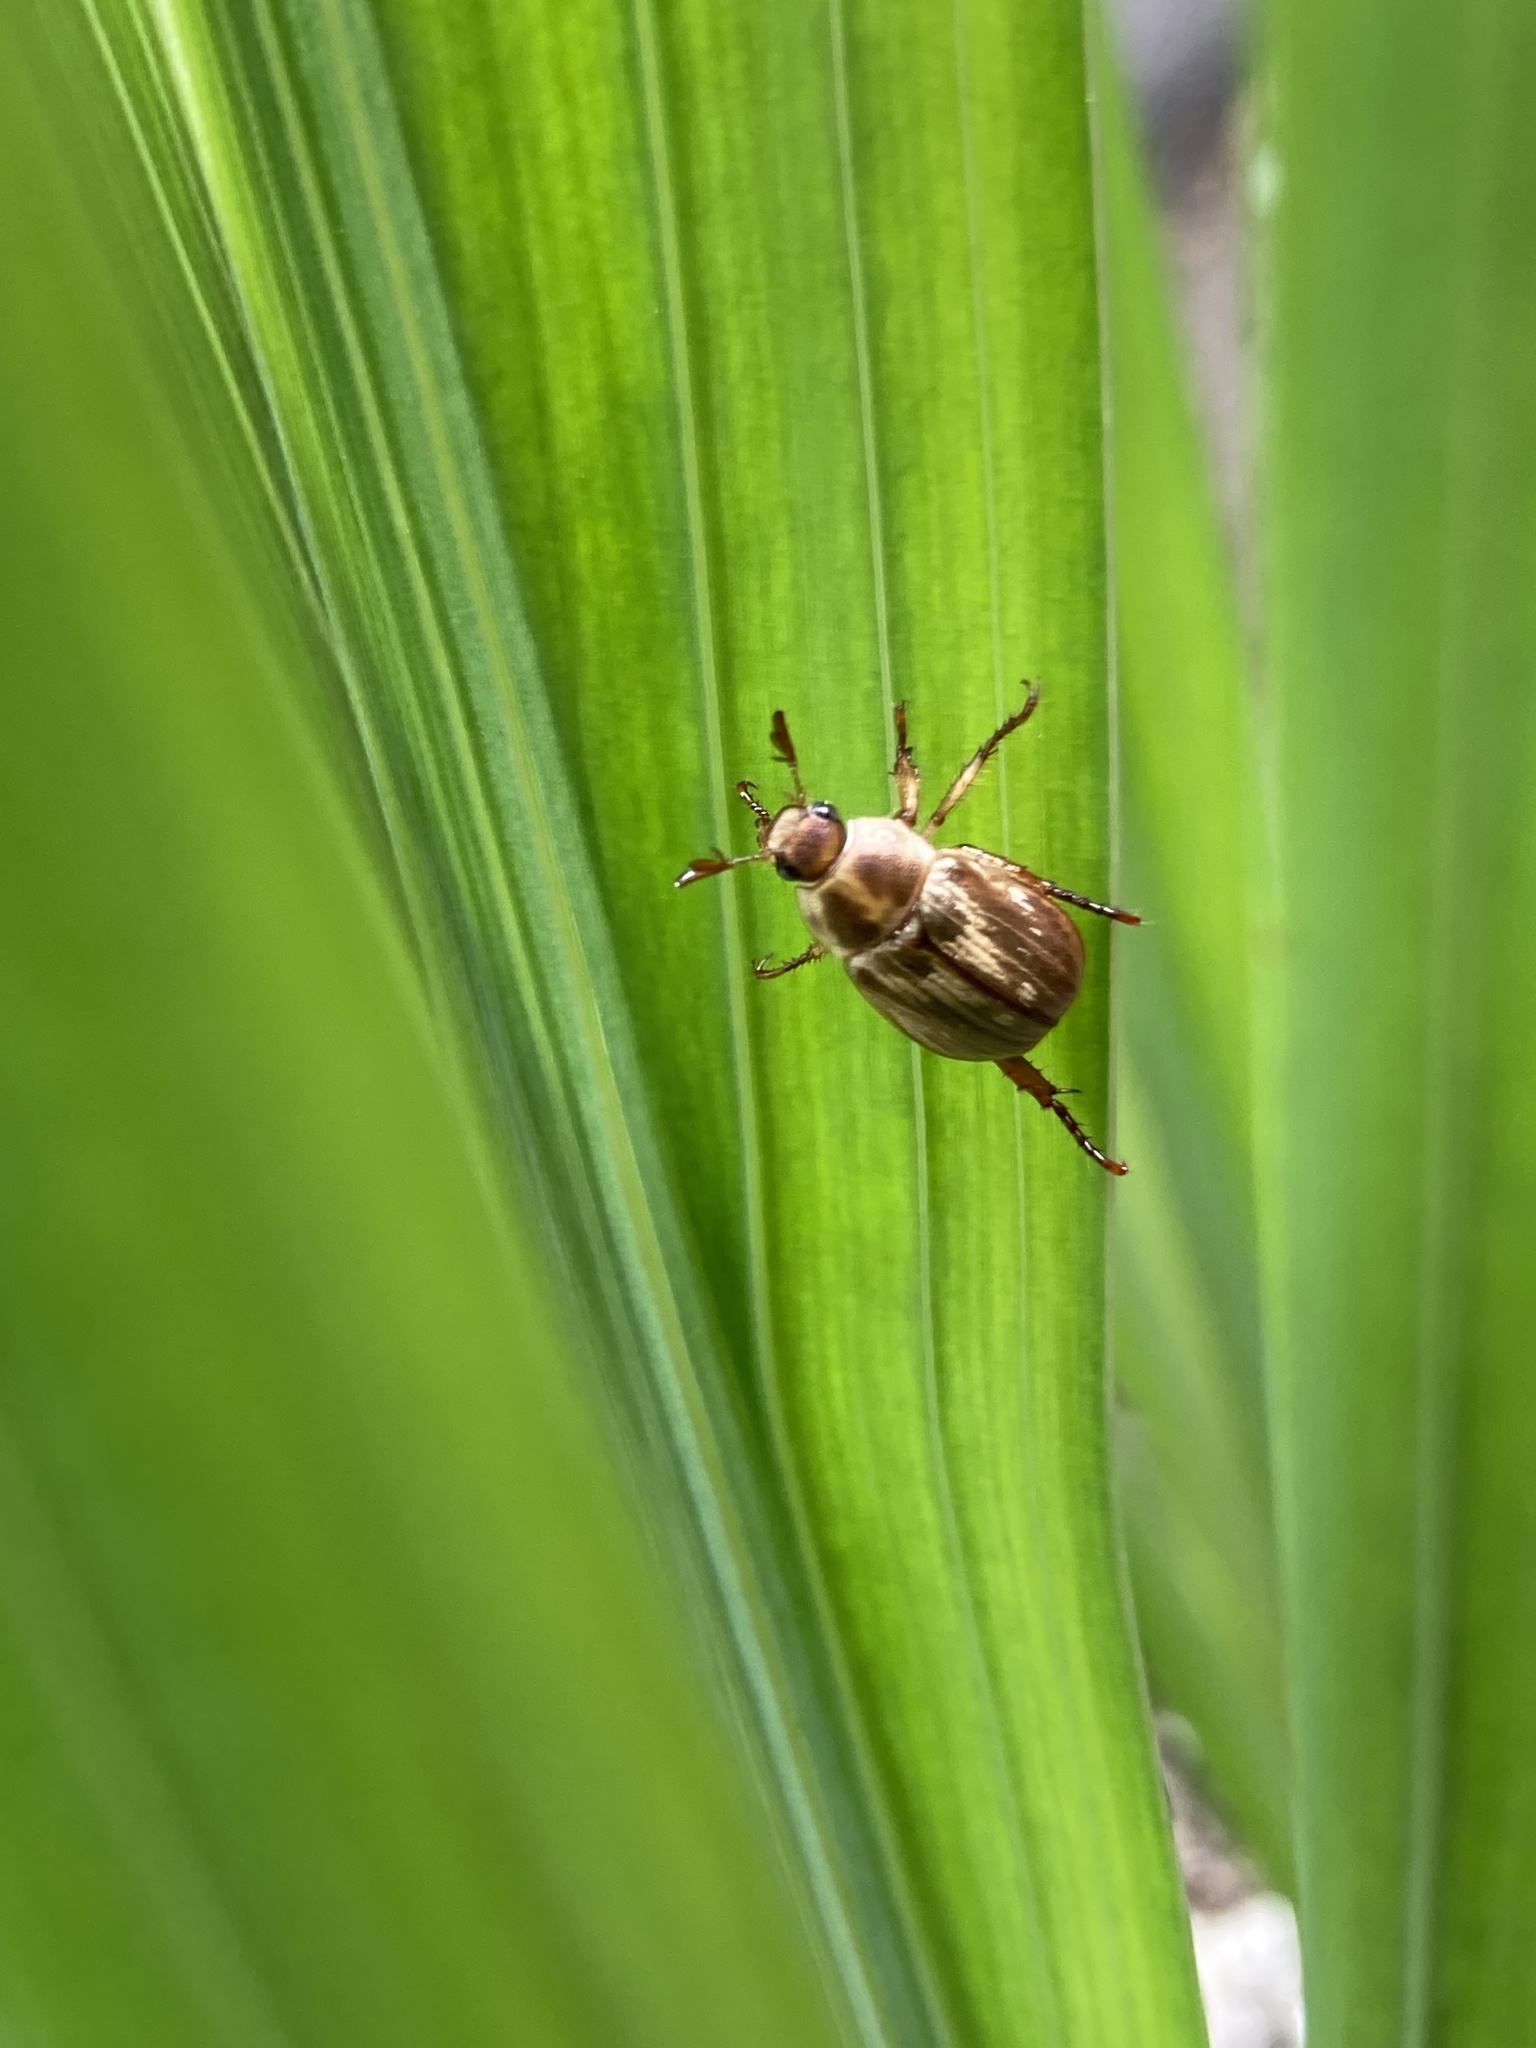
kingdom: Animalia
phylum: Arthropoda
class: Insecta
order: Coleoptera
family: Scarabaeidae
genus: Exomala
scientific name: Exomala orientalis
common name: Oriental beetle
